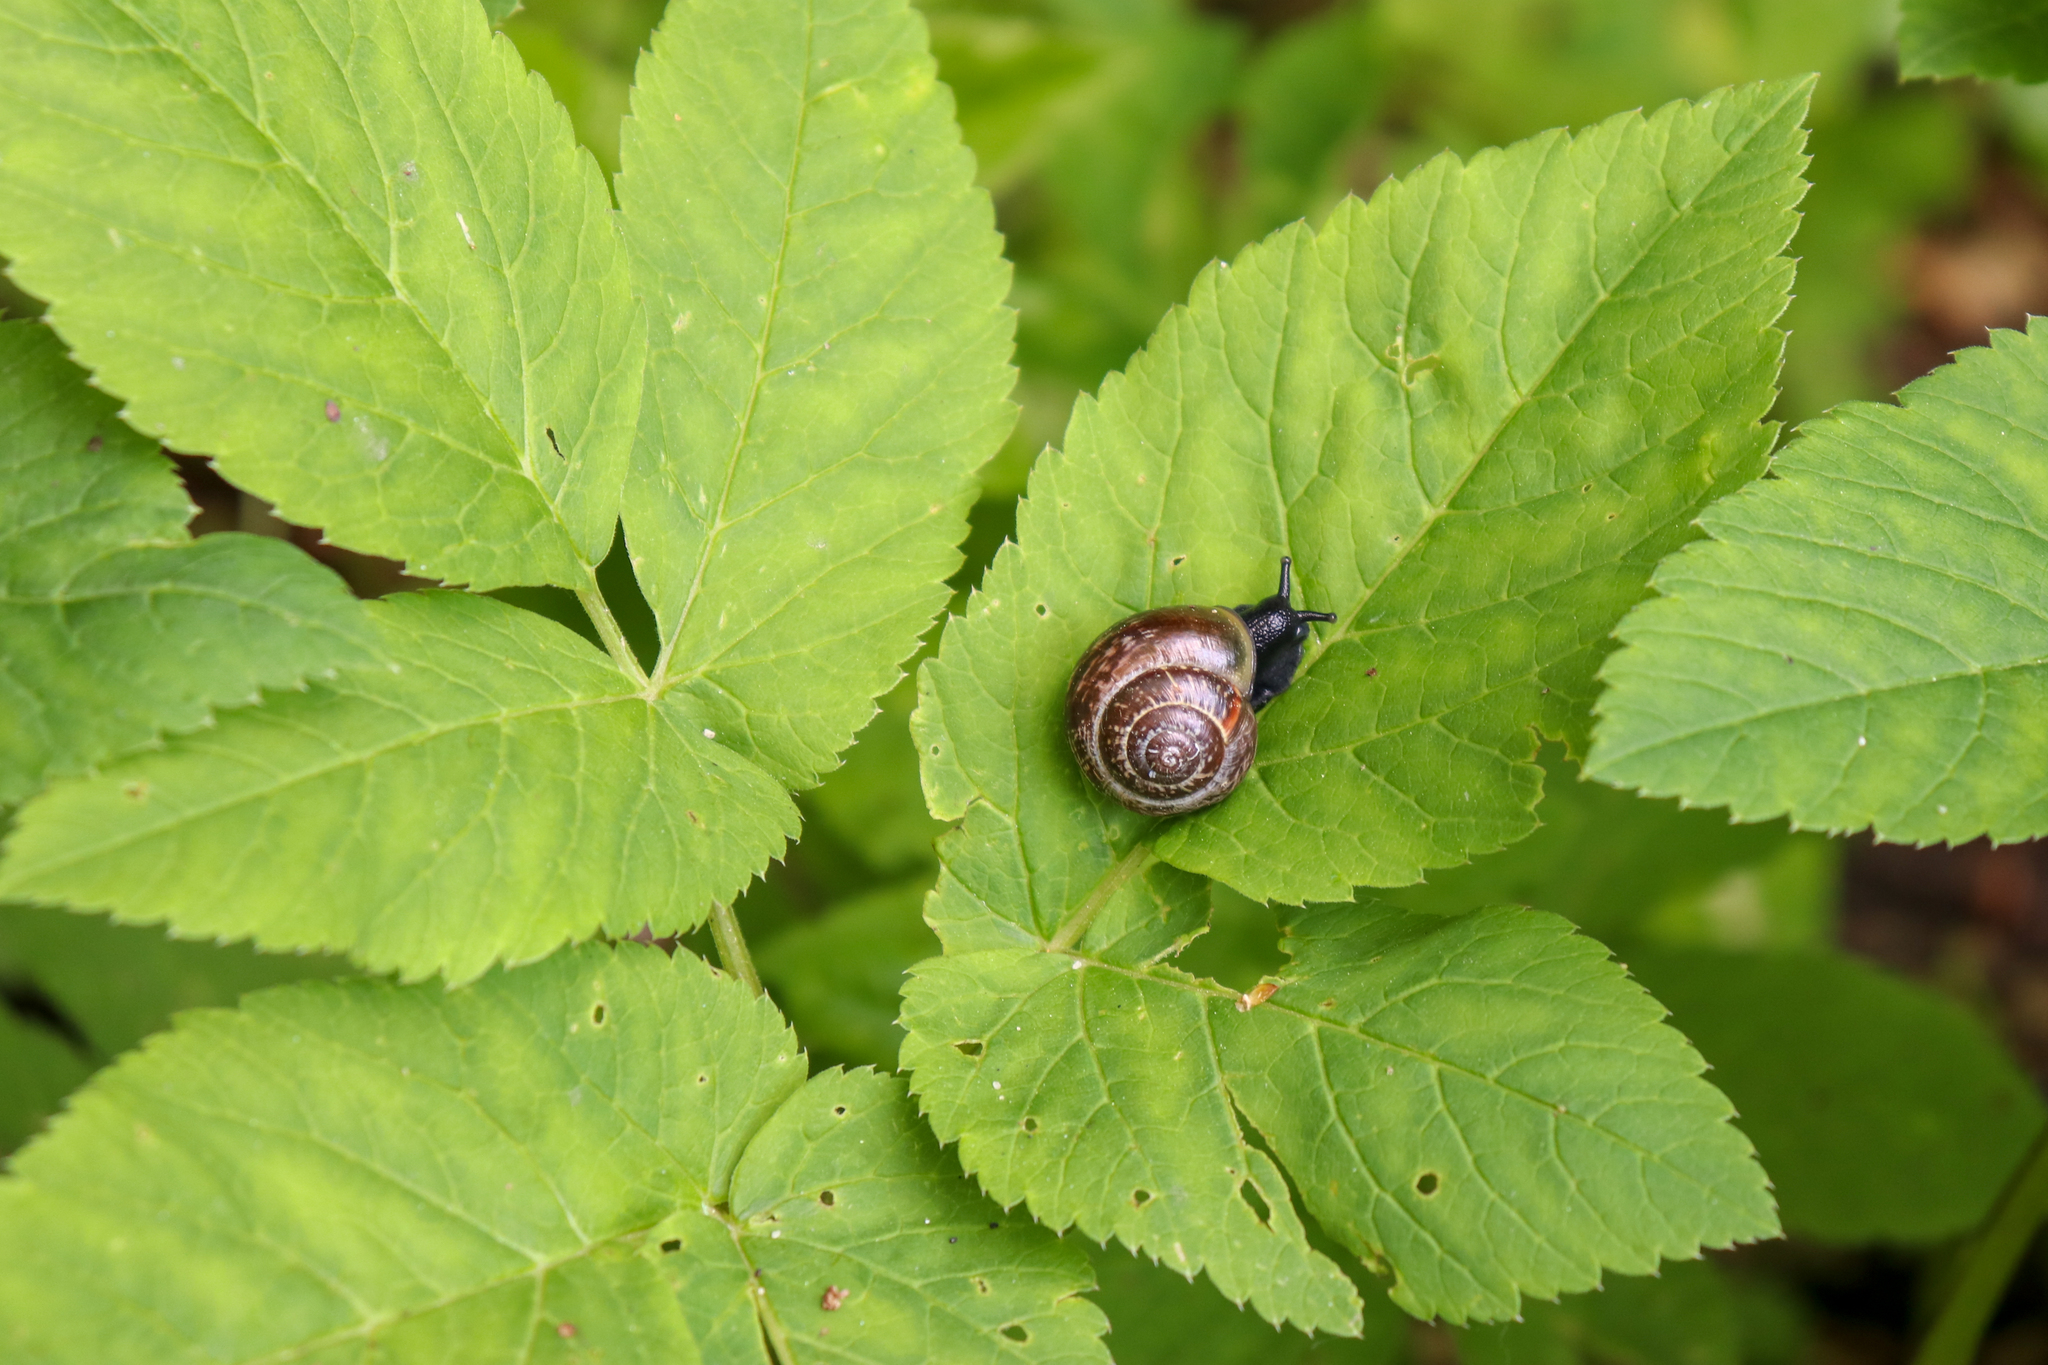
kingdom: Animalia
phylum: Mollusca
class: Gastropoda
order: Stylommatophora
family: Helicidae
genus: Arianta
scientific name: Arianta arbustorum
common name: Copse snail
